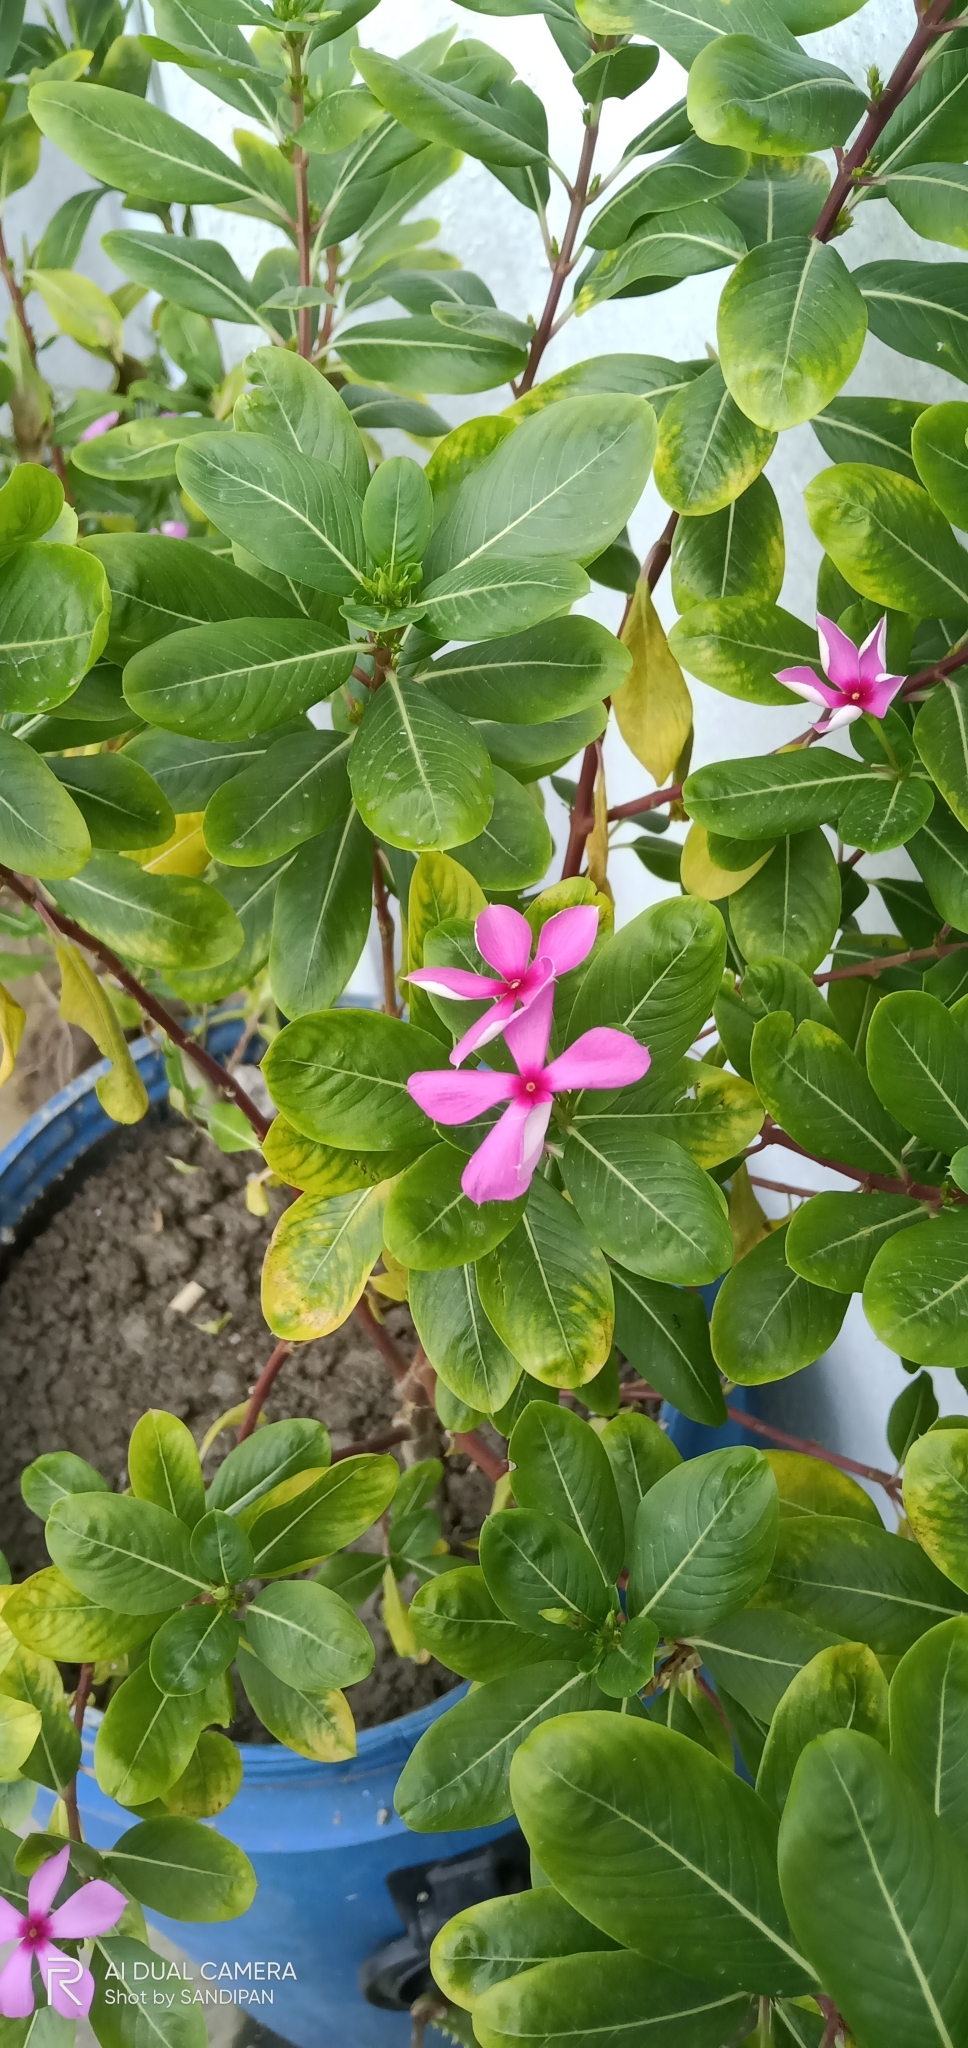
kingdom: Plantae
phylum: Tracheophyta
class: Magnoliopsida
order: Gentianales
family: Apocynaceae
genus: Catharanthus
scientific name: Catharanthus roseus
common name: Madagascar periwinkle
